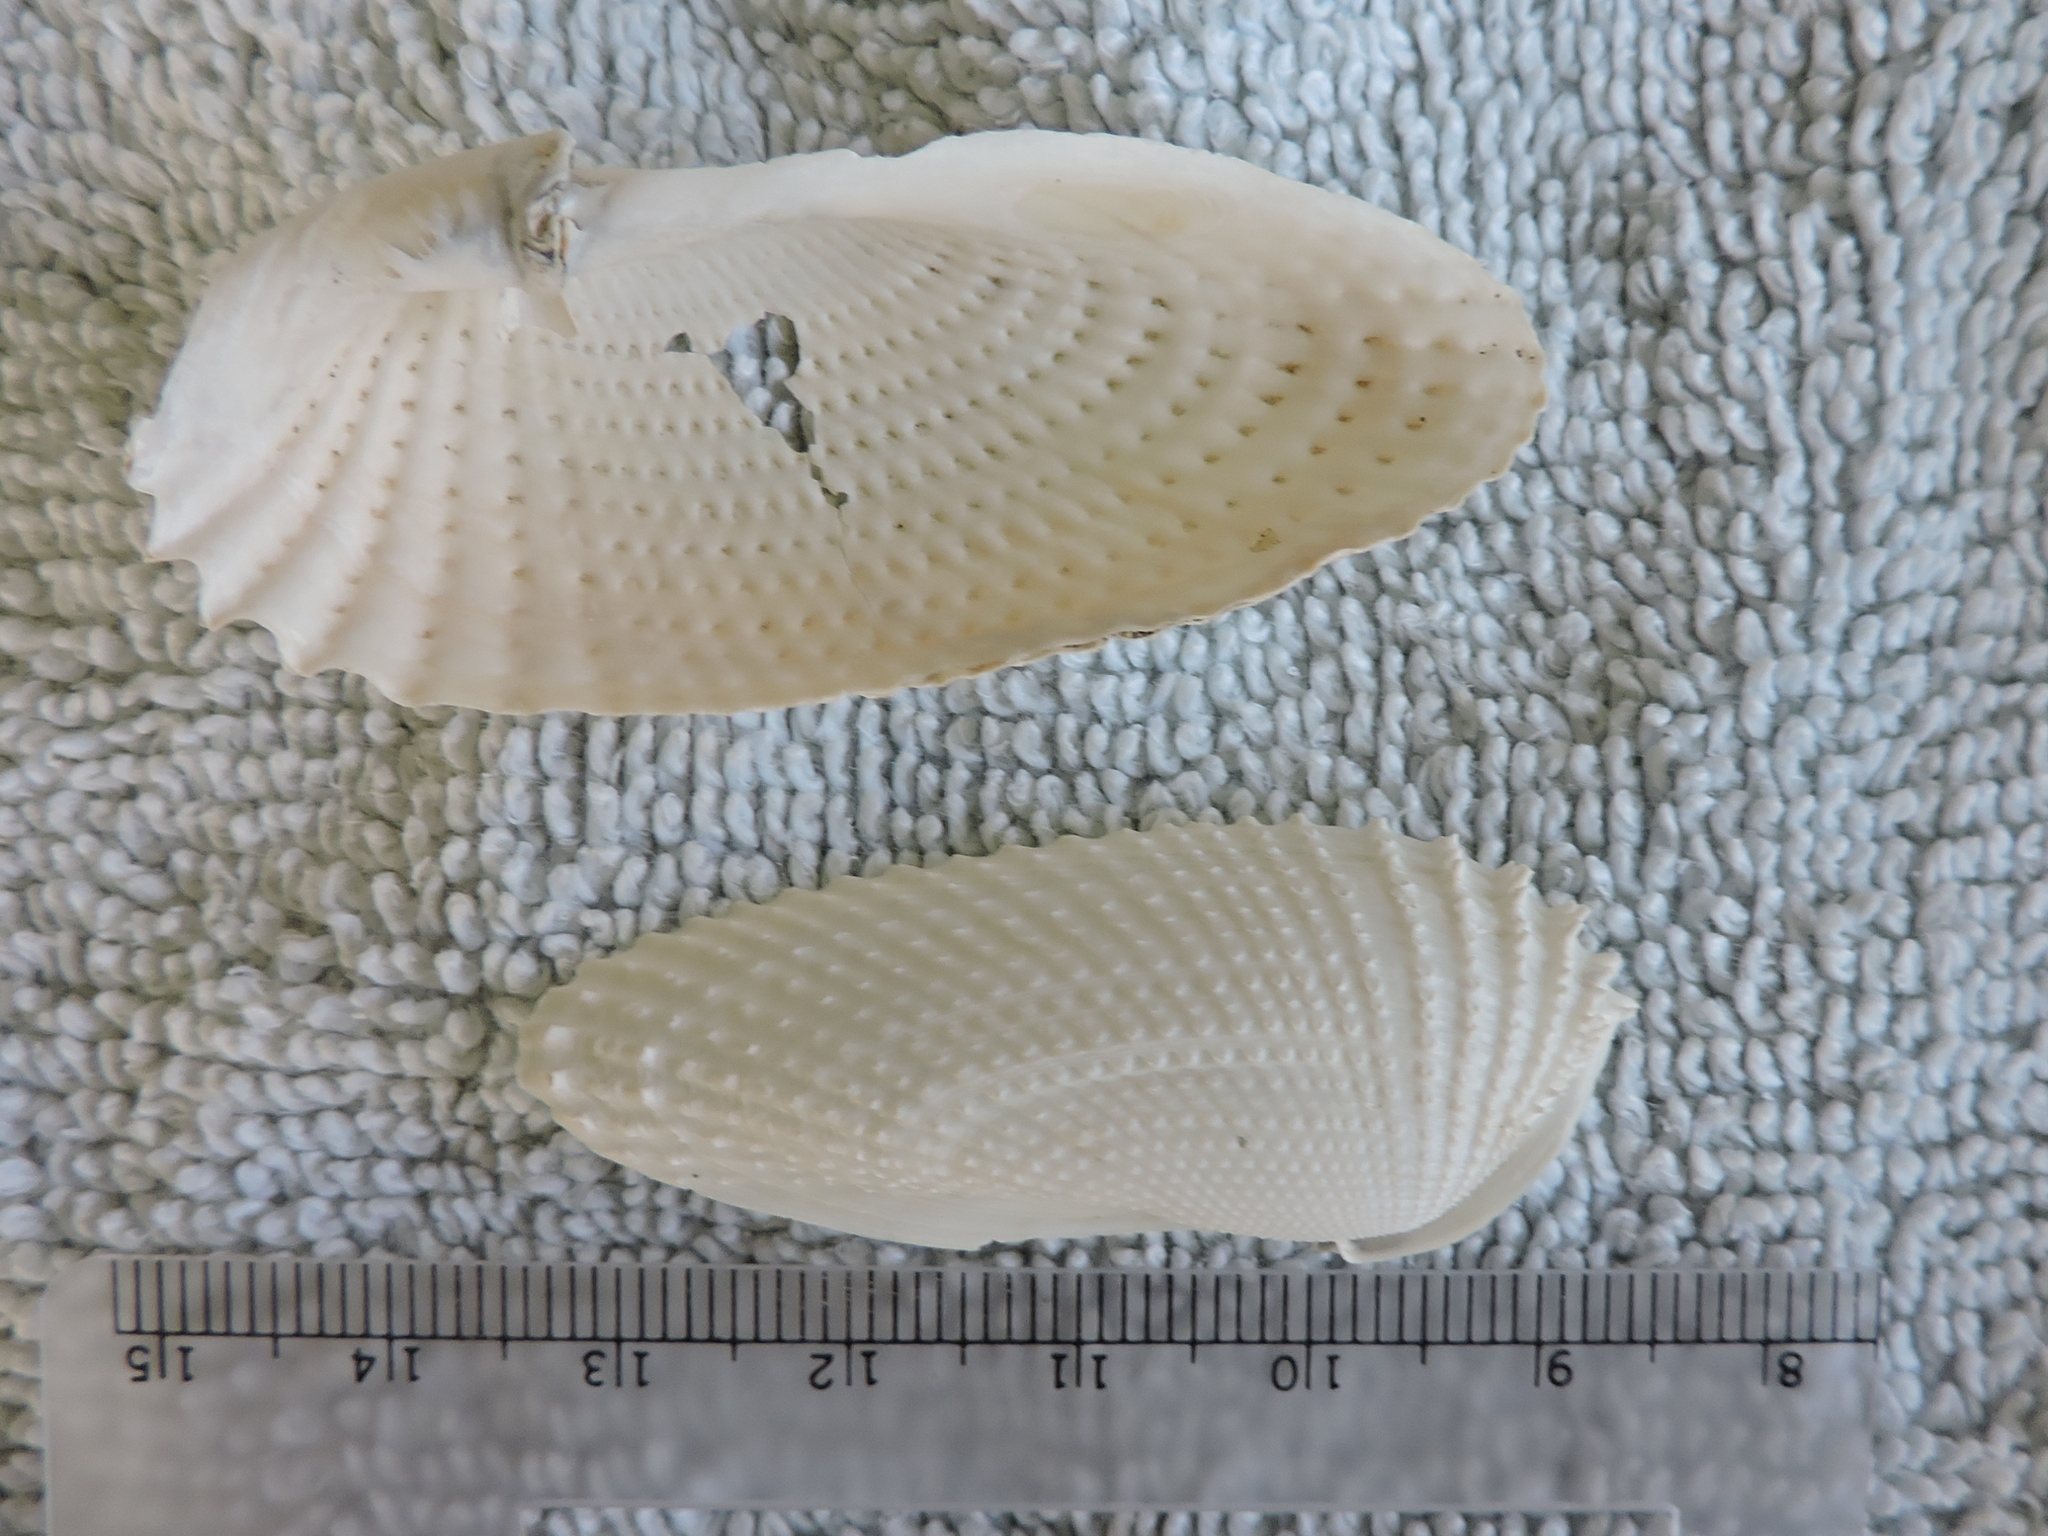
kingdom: Animalia
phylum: Mollusca
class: Bivalvia
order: Myida
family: Pholadidae
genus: Cyrtopleura
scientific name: Cyrtopleura costata
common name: Angel wing
